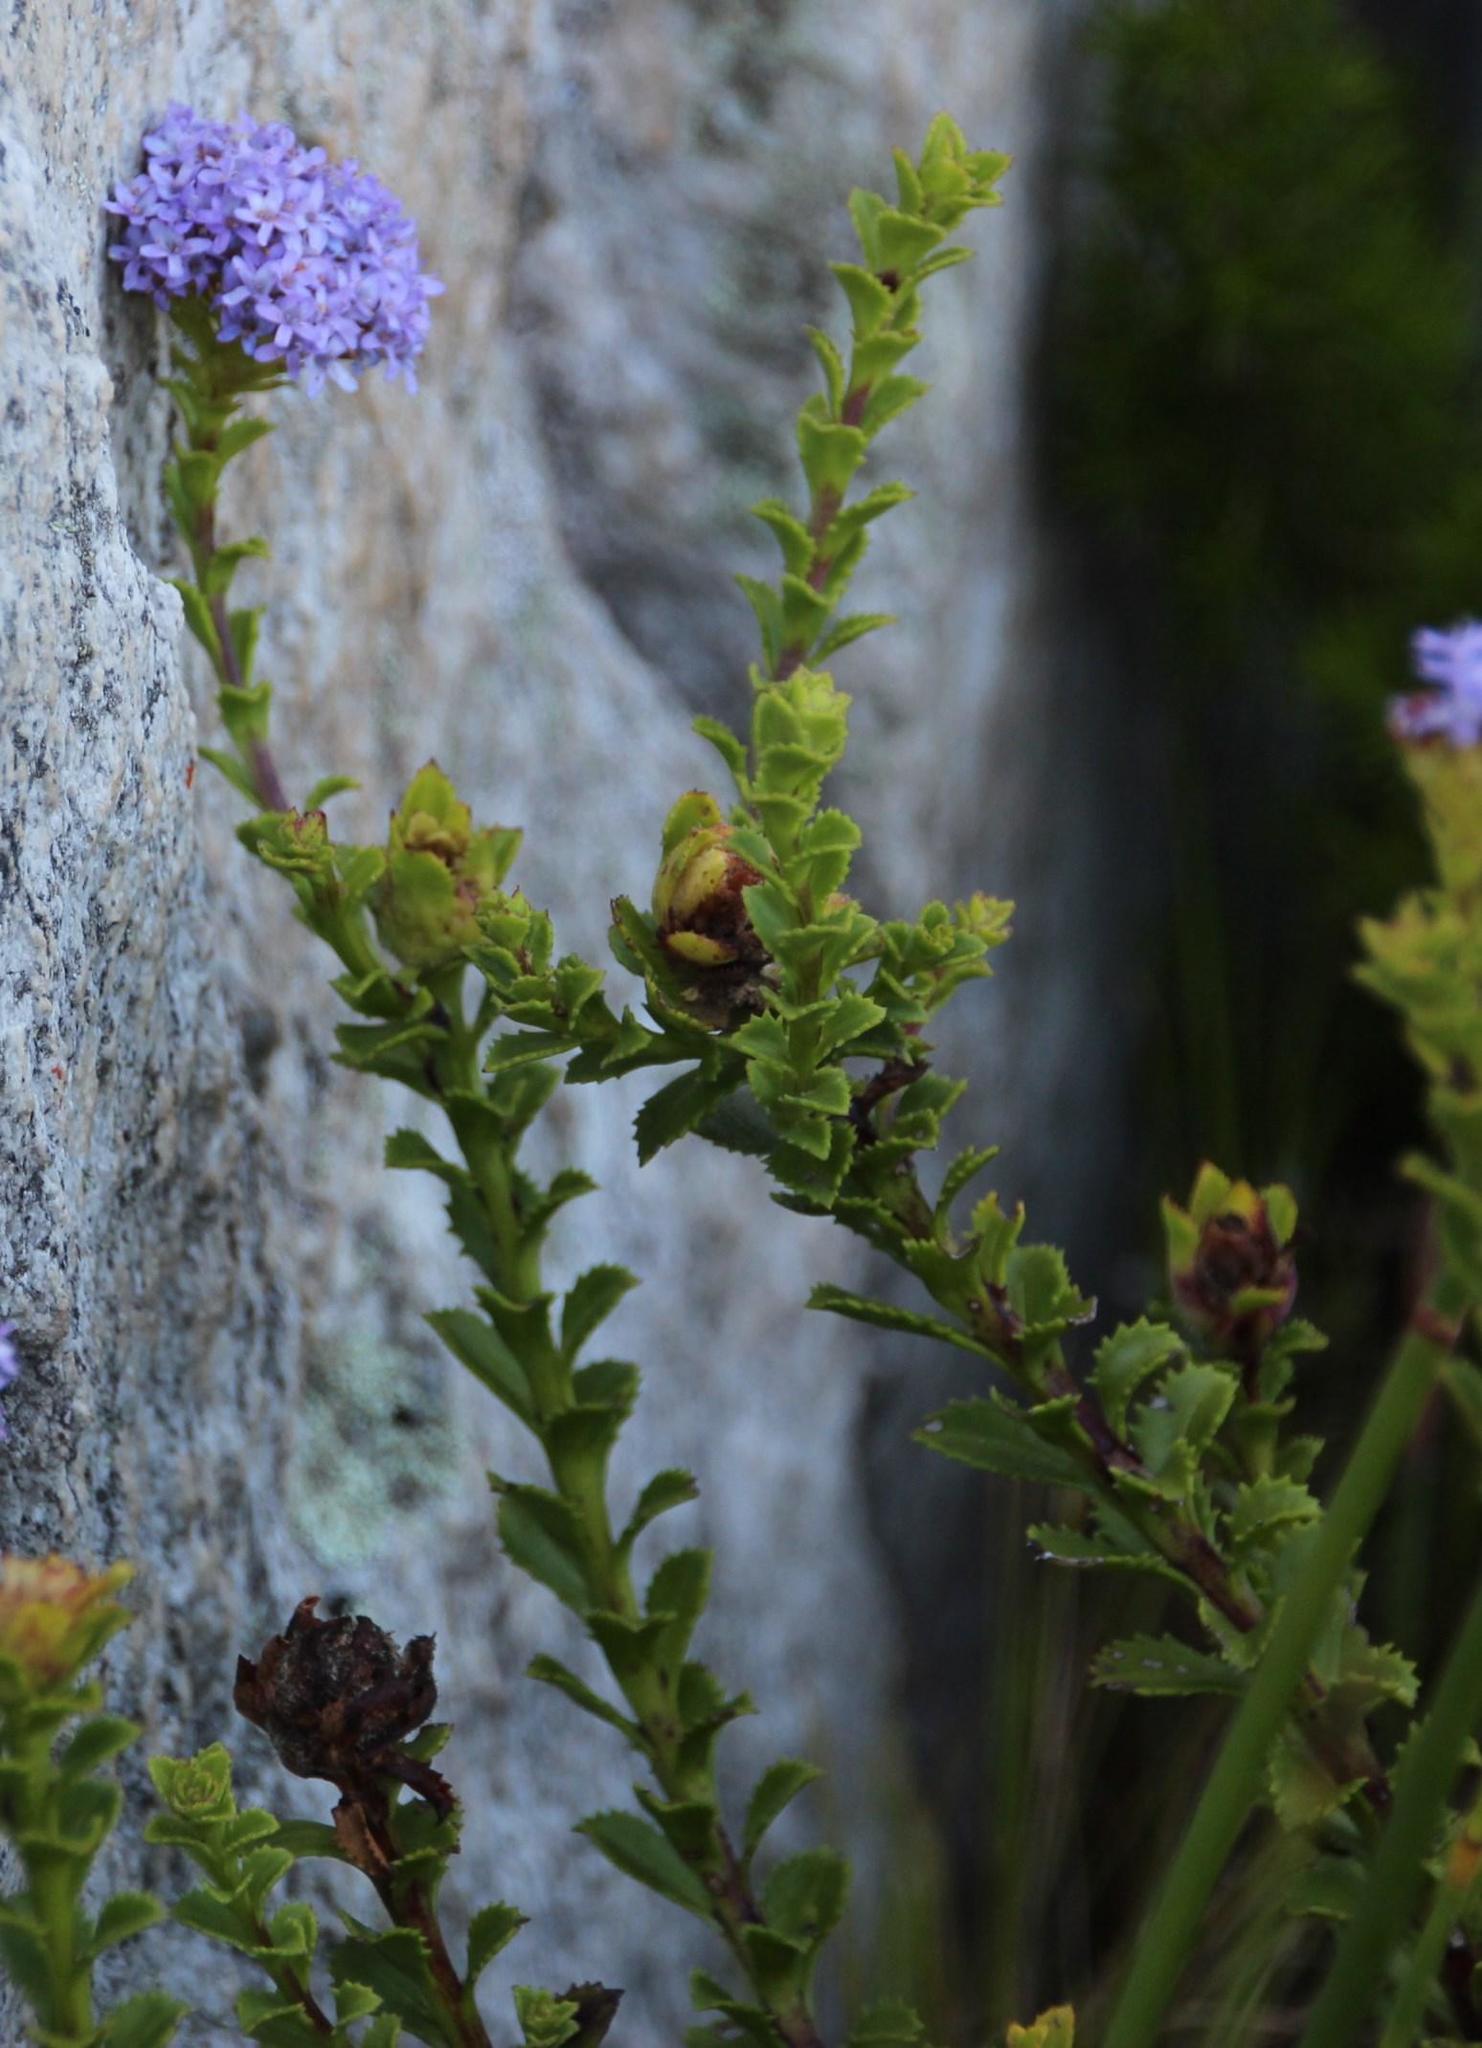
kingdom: Plantae
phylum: Tracheophyta
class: Magnoliopsida
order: Lamiales
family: Scrophulariaceae
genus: Pseudoselago
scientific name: Pseudoselago serrata
